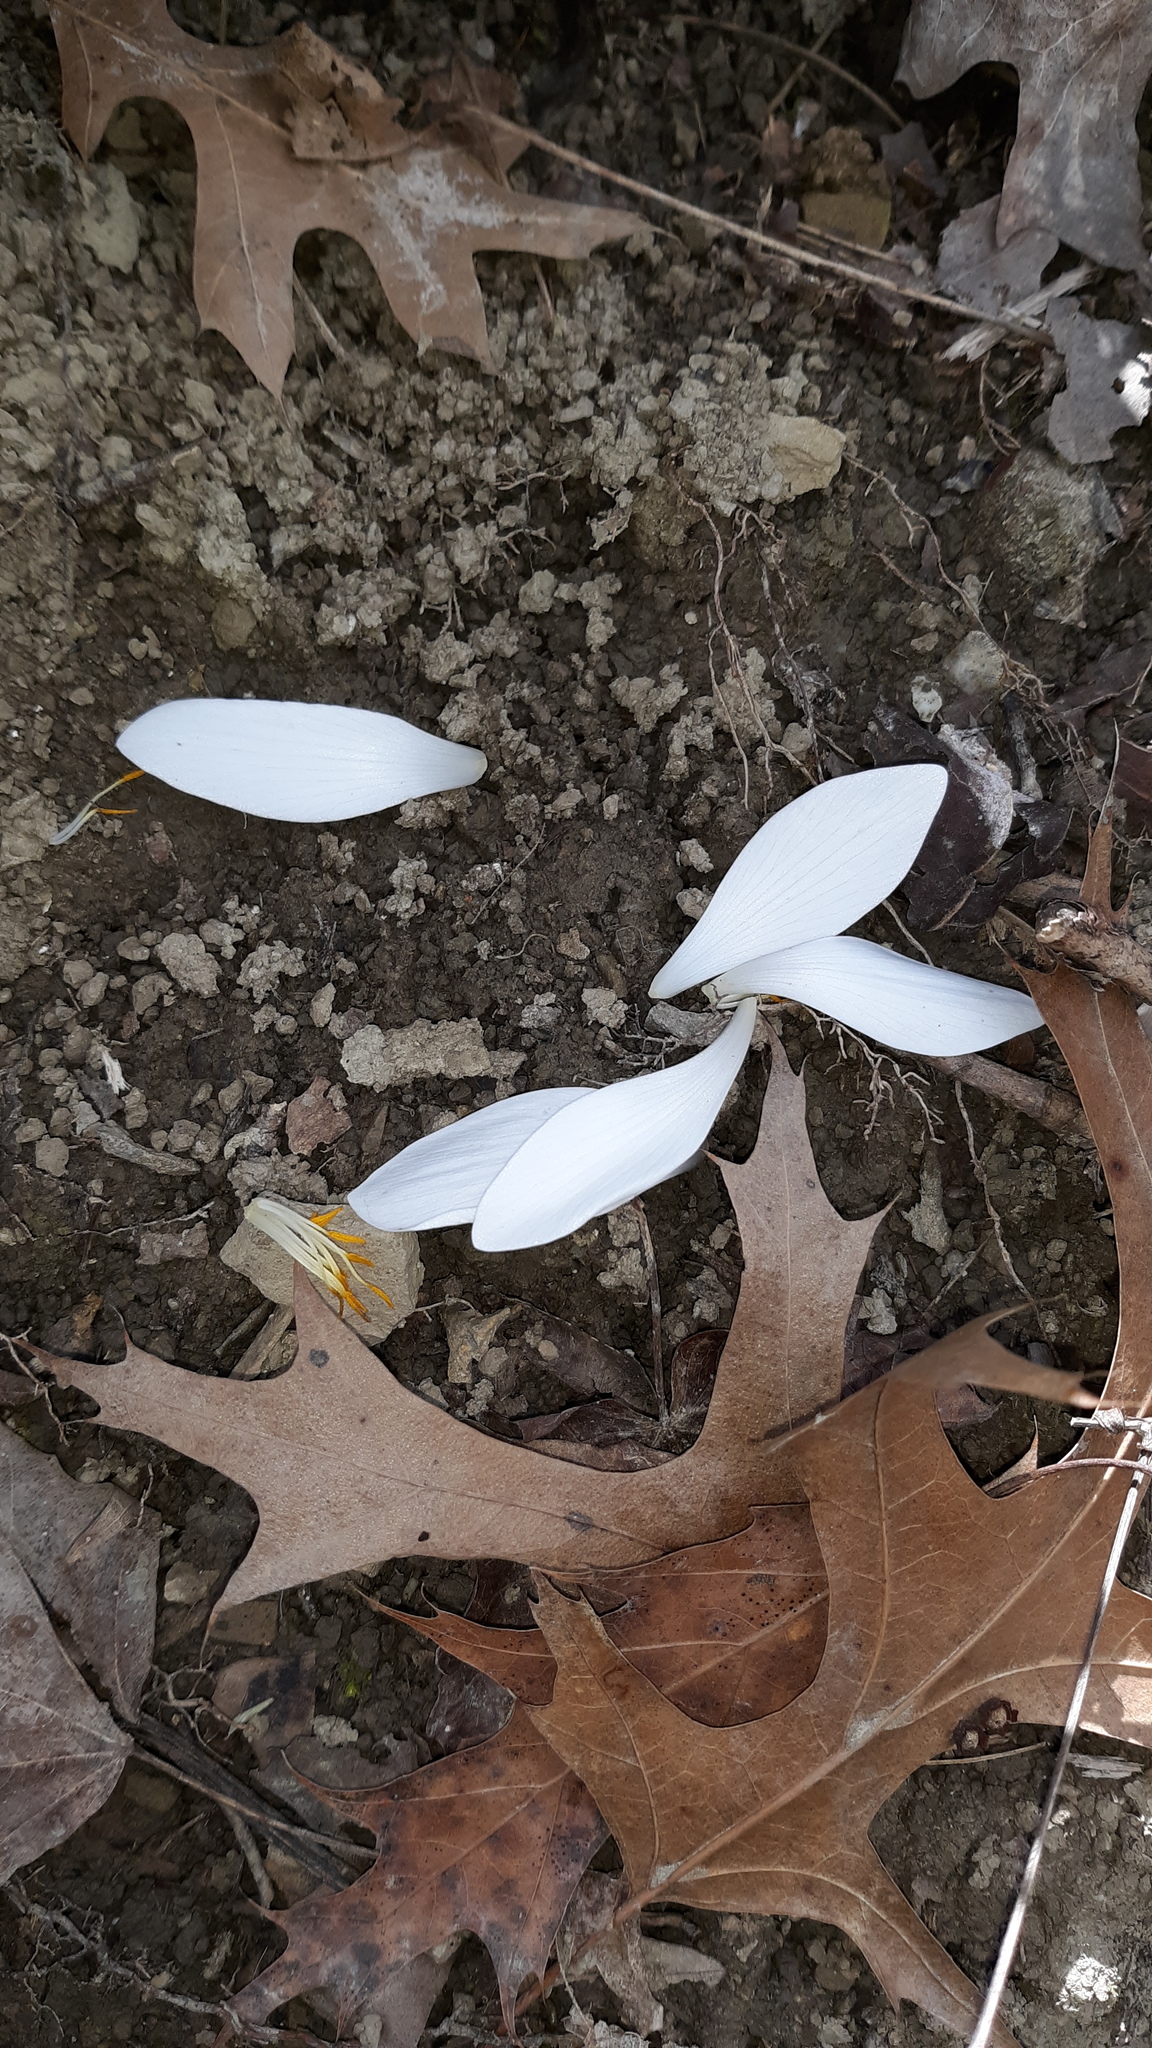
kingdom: Plantae
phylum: Tracheophyta
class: Magnoliopsida
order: Ranunculales
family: Papaveraceae
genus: Sanguinaria
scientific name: Sanguinaria canadensis
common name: Bloodroot
